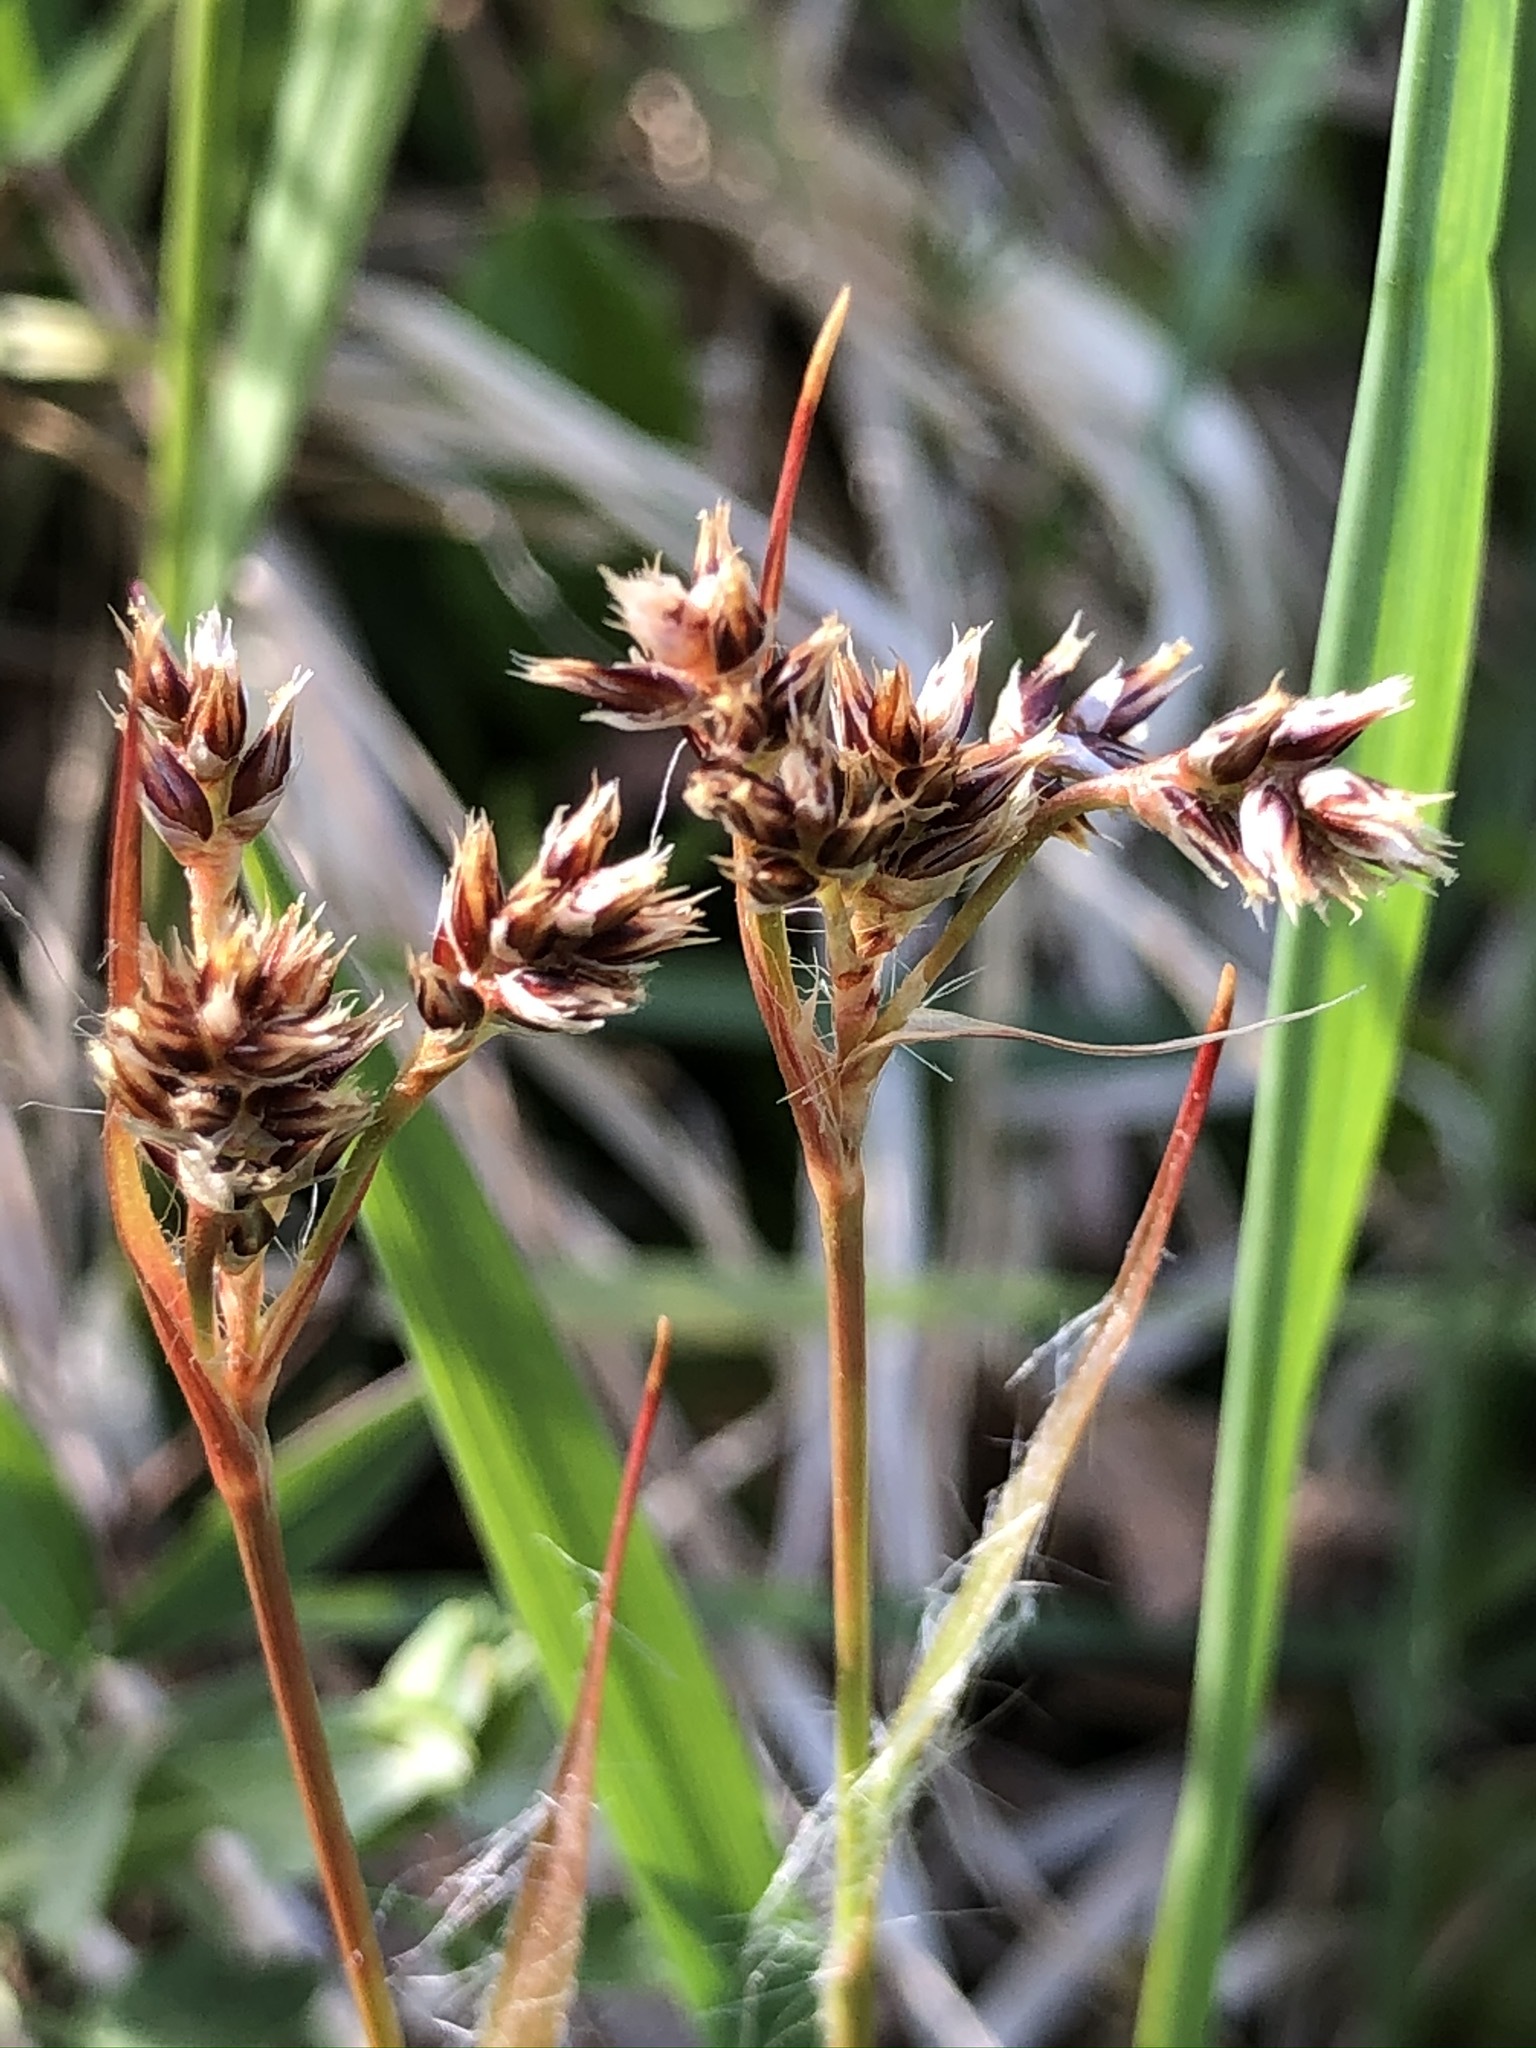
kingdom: Plantae
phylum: Tracheophyta
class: Liliopsida
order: Poales
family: Juncaceae
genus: Luzula
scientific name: Luzula campestris
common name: Field wood-rush
